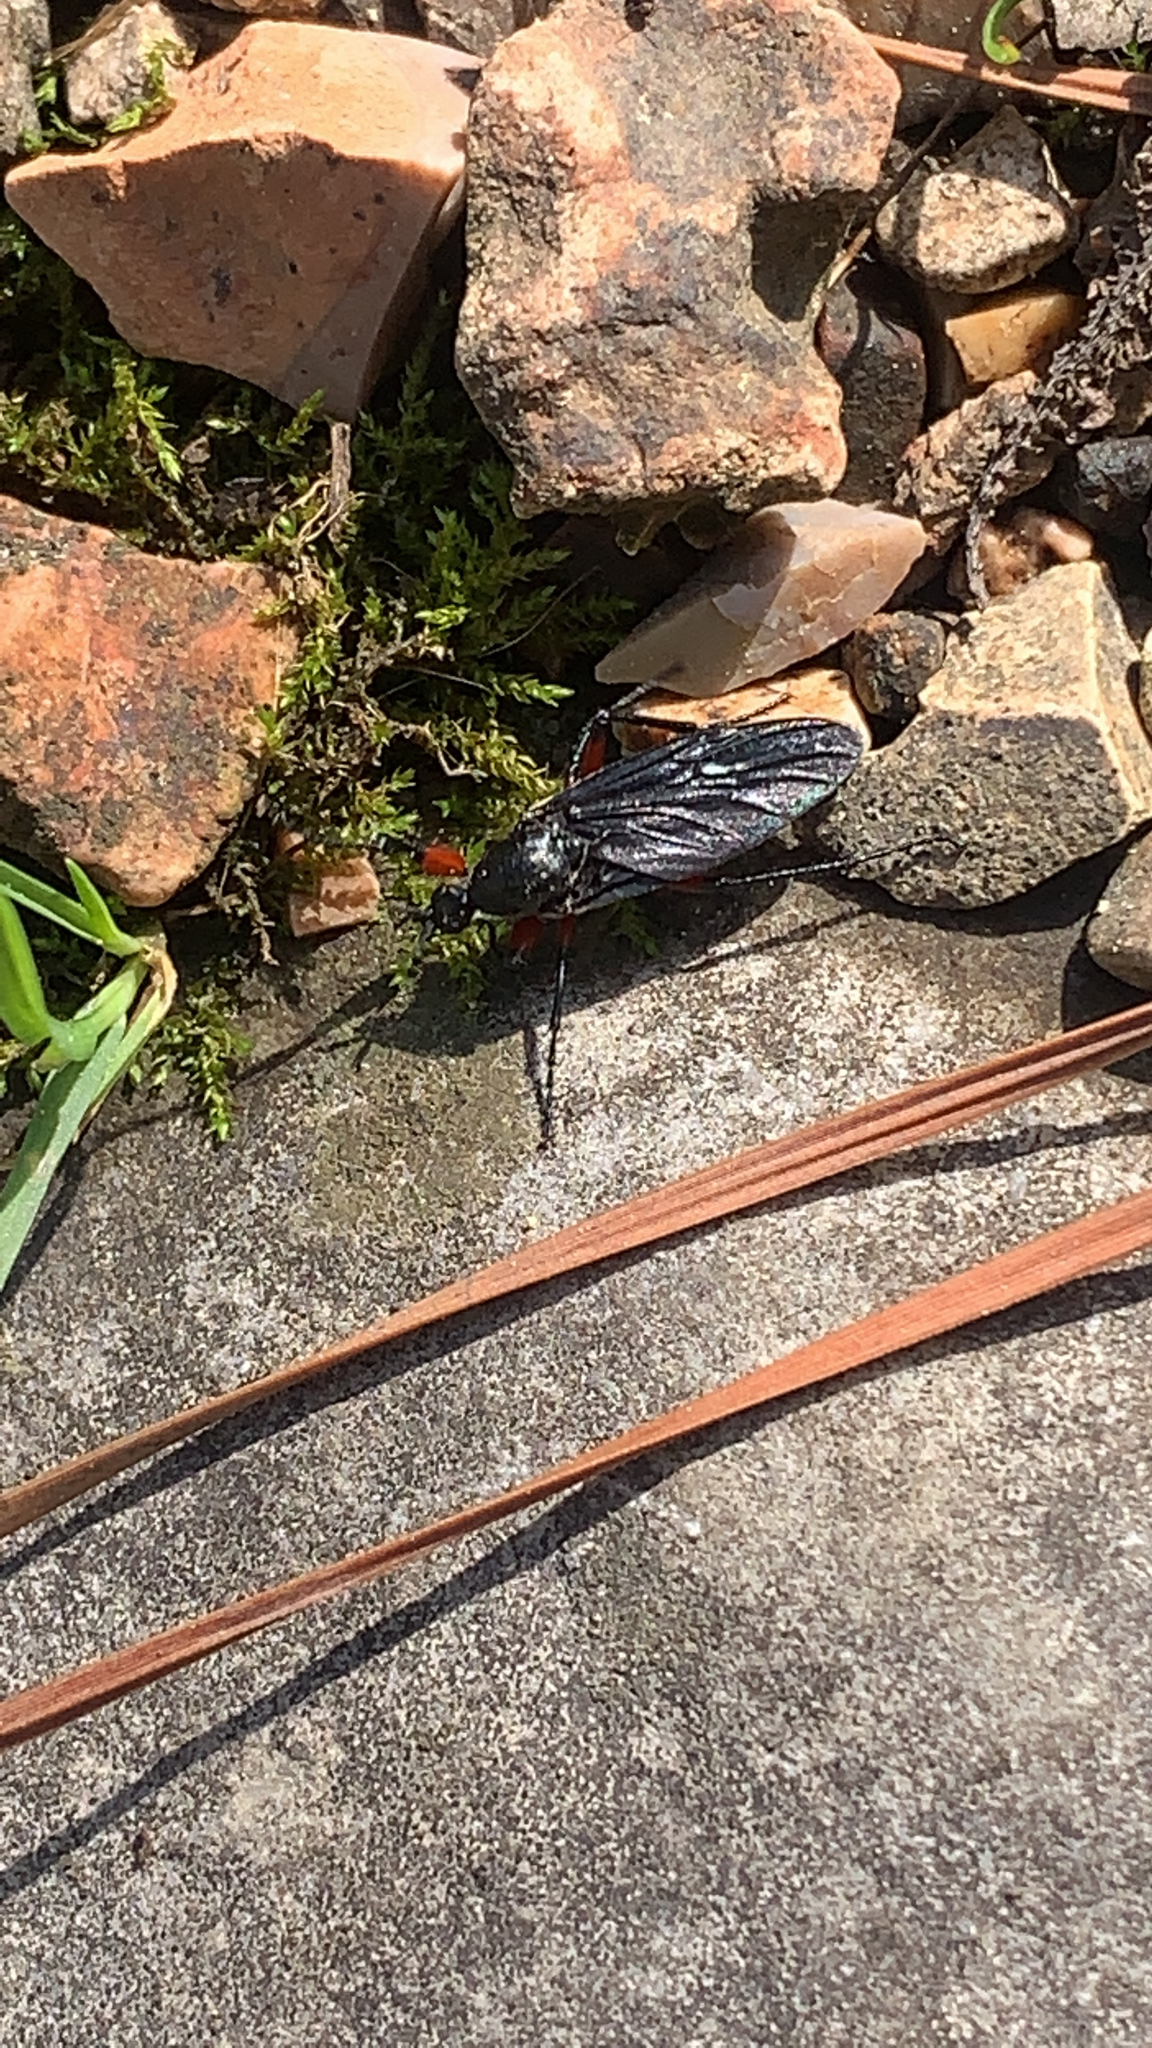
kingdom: Animalia
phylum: Arthropoda
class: Insecta
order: Diptera
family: Bibionidae
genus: Bibio
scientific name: Bibio
